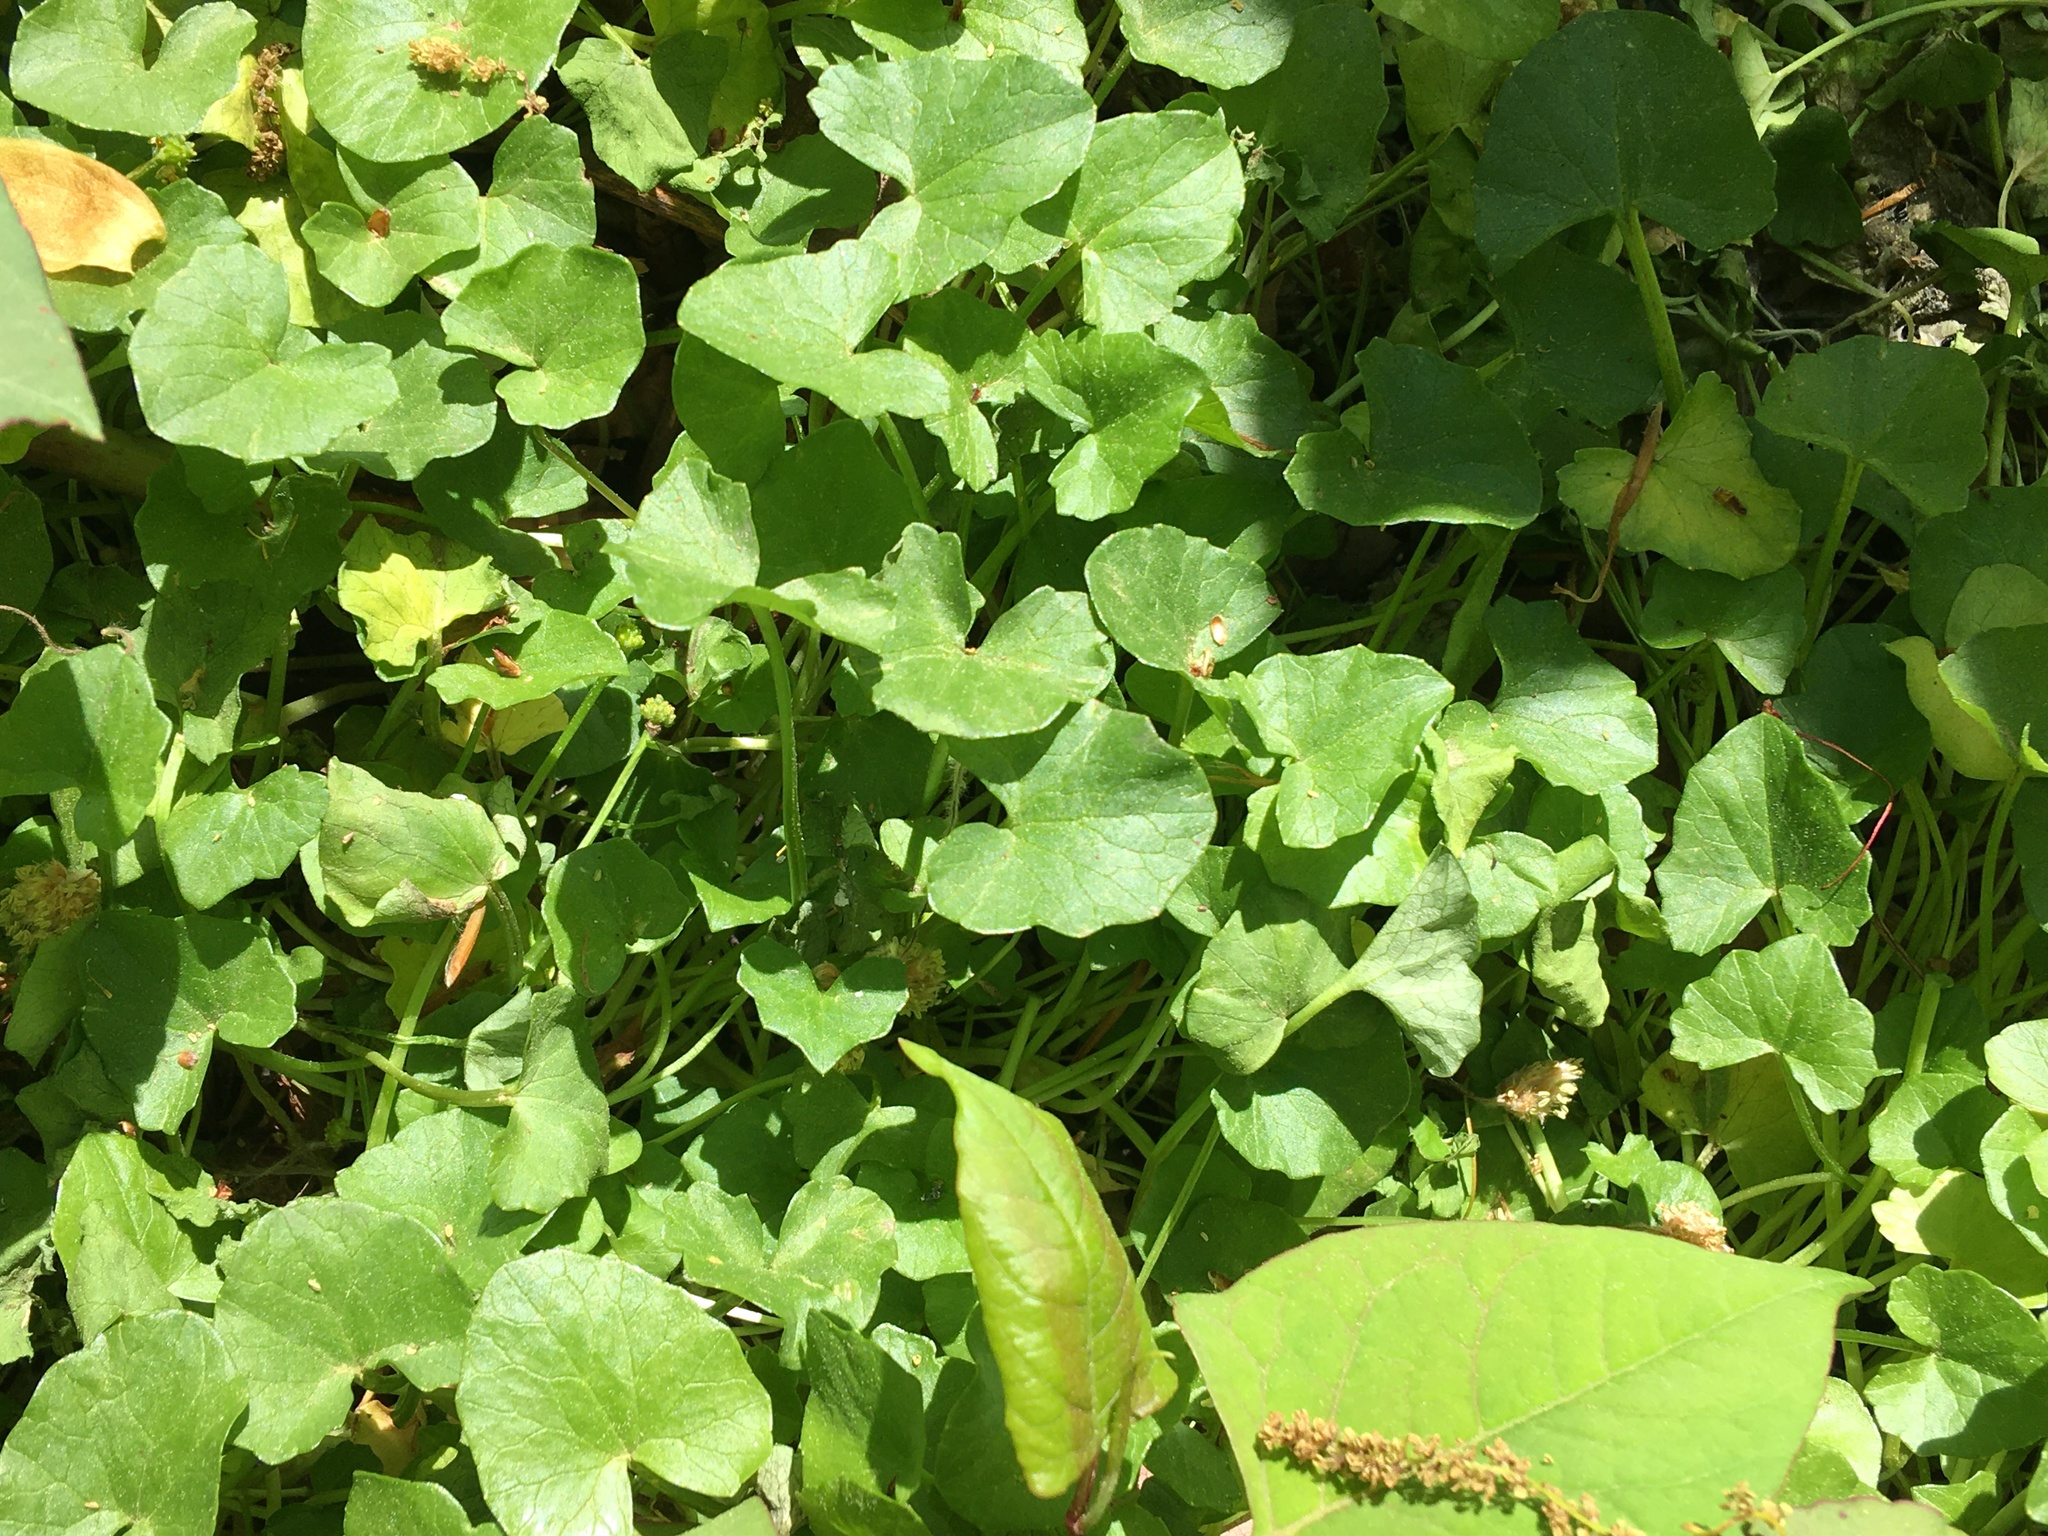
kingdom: Plantae
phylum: Tracheophyta
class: Magnoliopsida
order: Ranunculales
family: Ranunculaceae
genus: Ficaria
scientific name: Ficaria verna
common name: Lesser celandine
